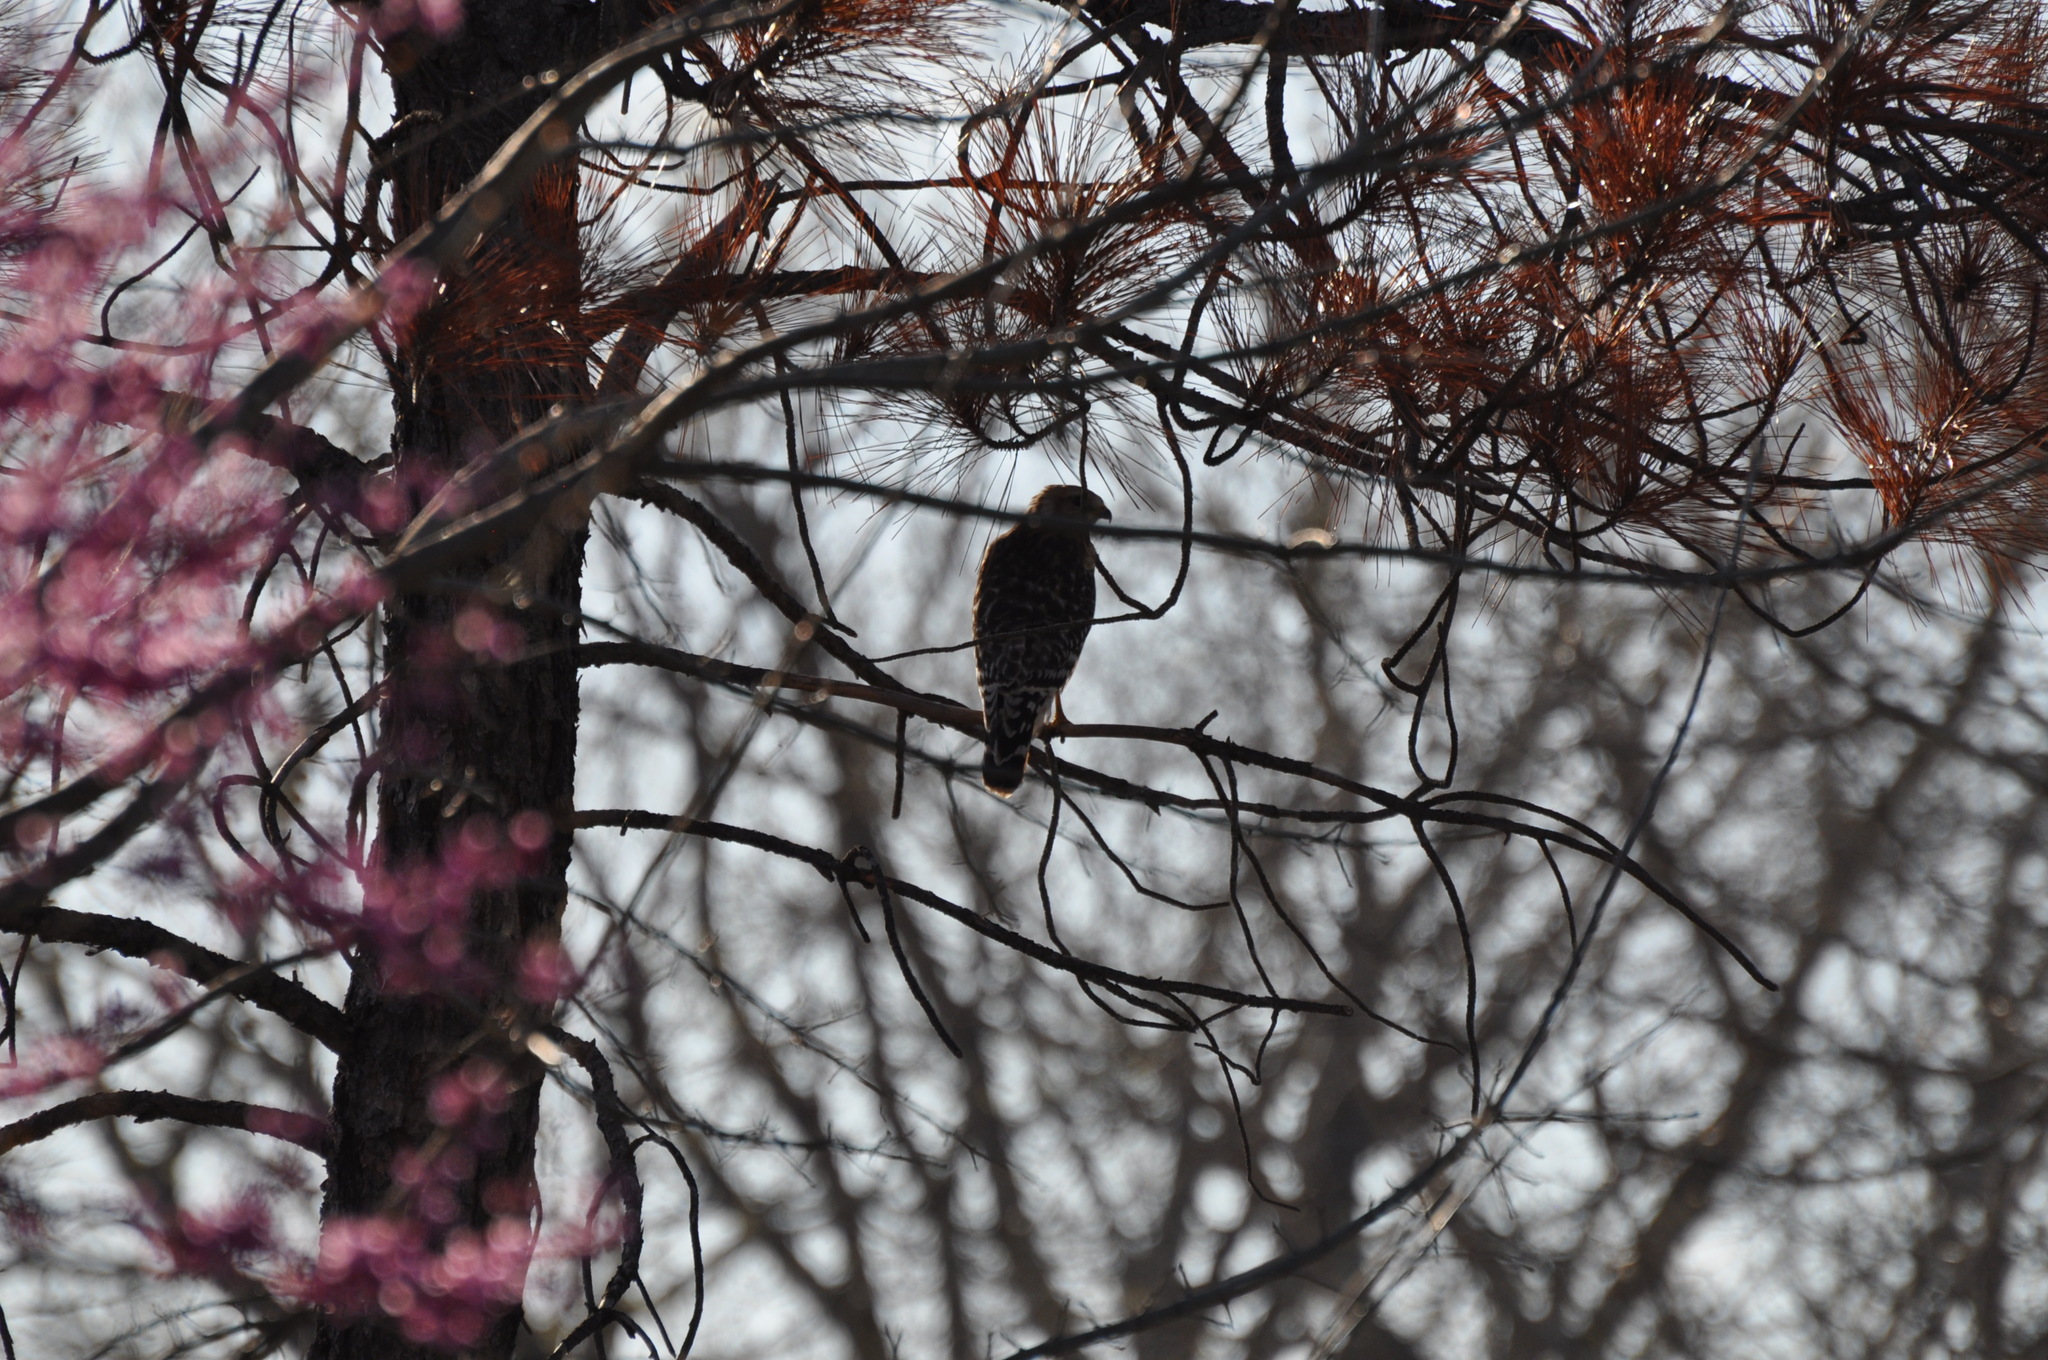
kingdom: Animalia
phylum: Chordata
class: Aves
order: Accipitriformes
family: Accipitridae
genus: Buteo
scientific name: Buteo lineatus
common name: Red-shouldered hawk
